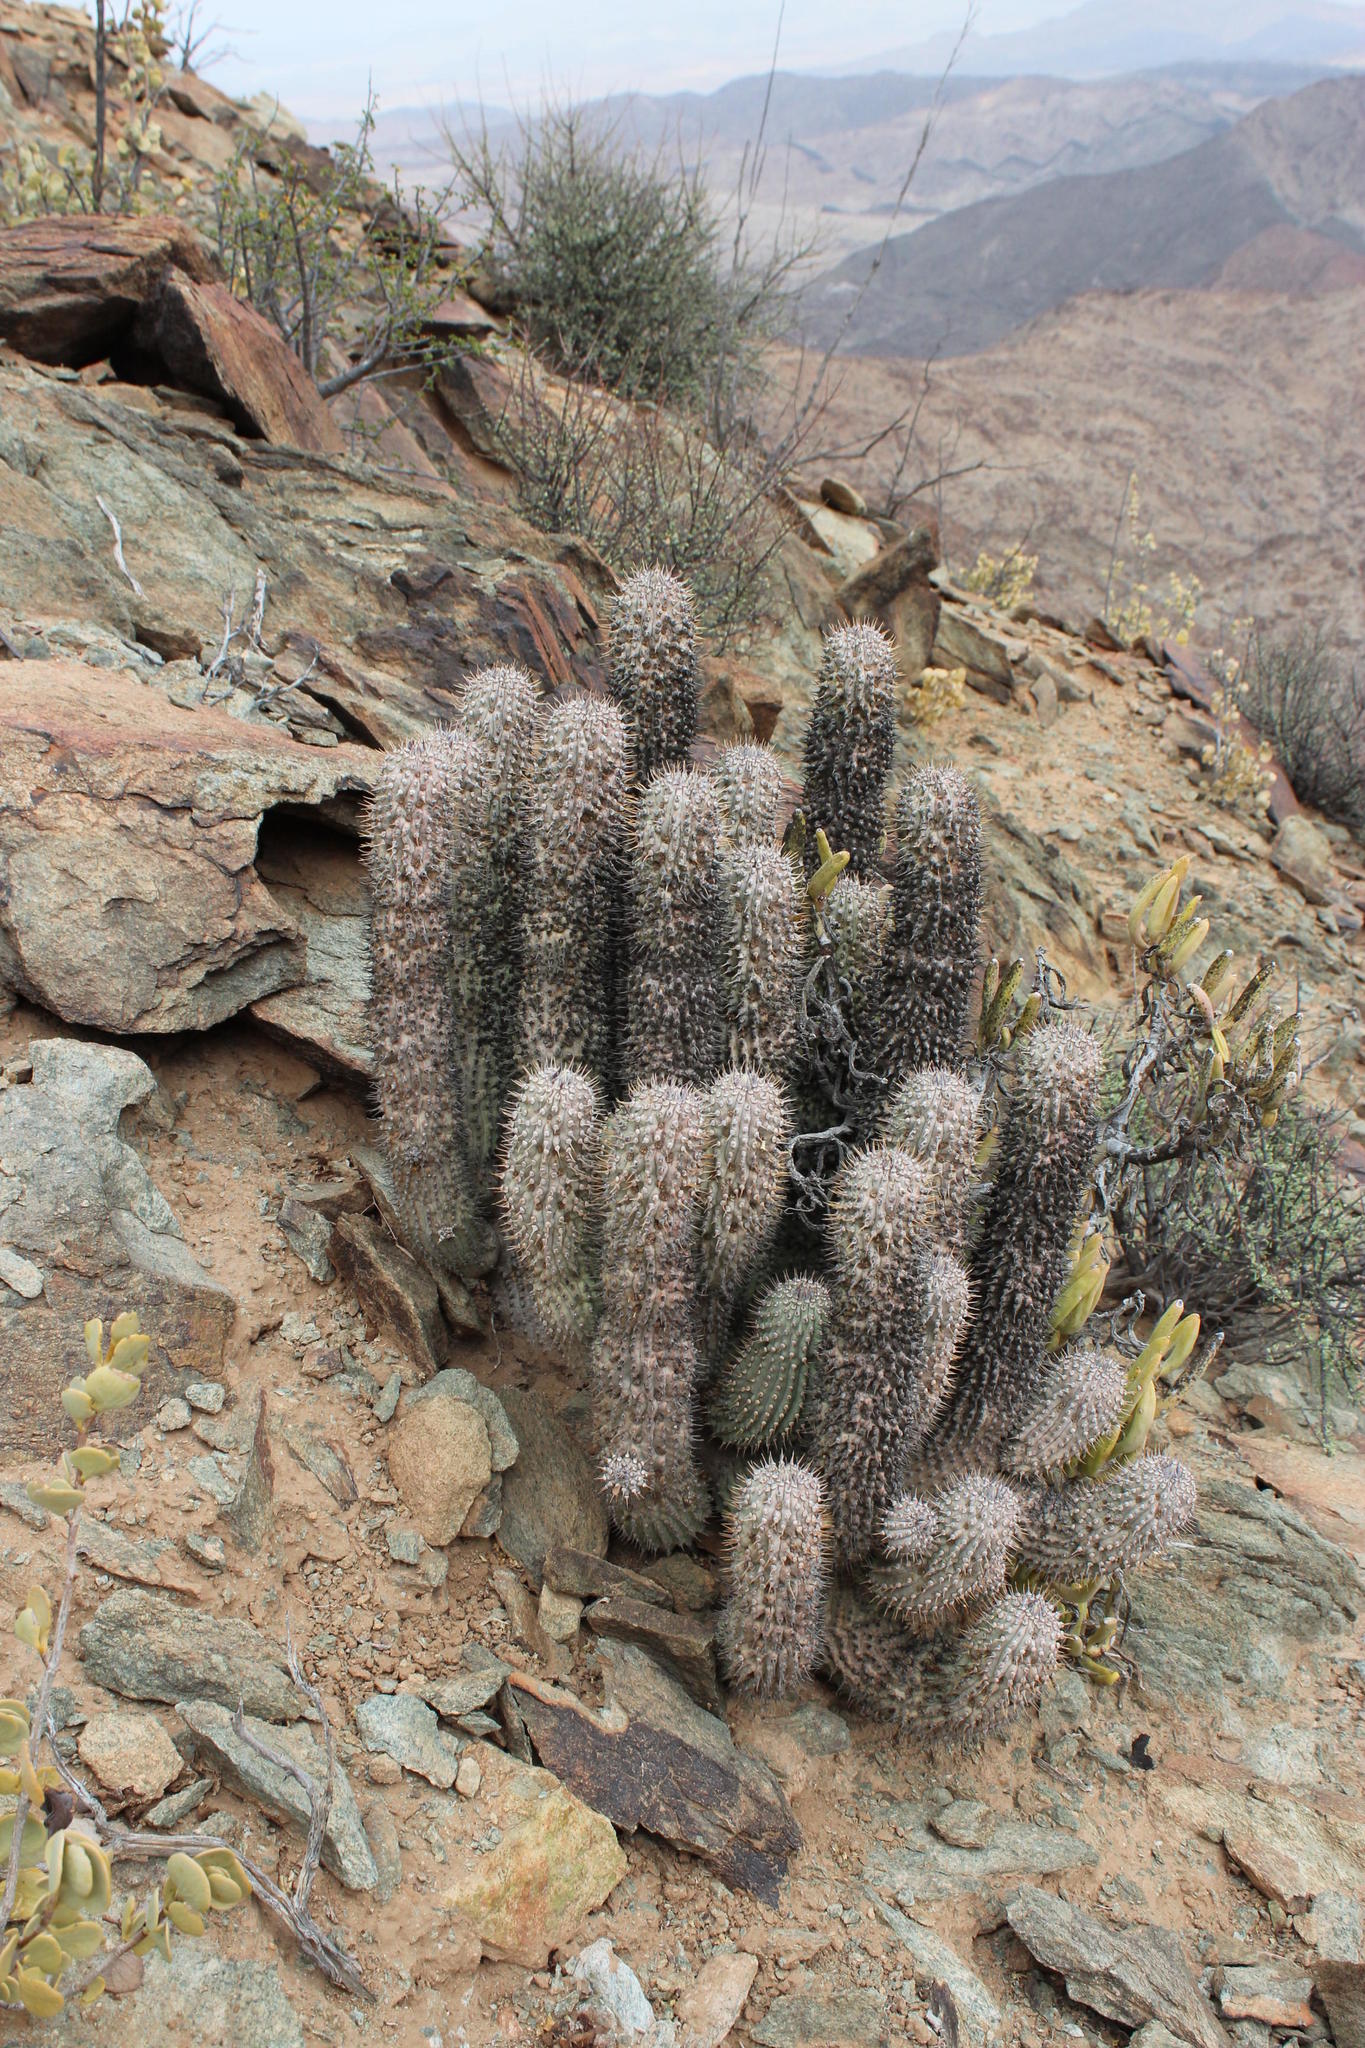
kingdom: Plantae
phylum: Tracheophyta
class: Magnoliopsida
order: Gentianales
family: Apocynaceae
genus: Hoodia
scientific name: Hoodia gordonii
